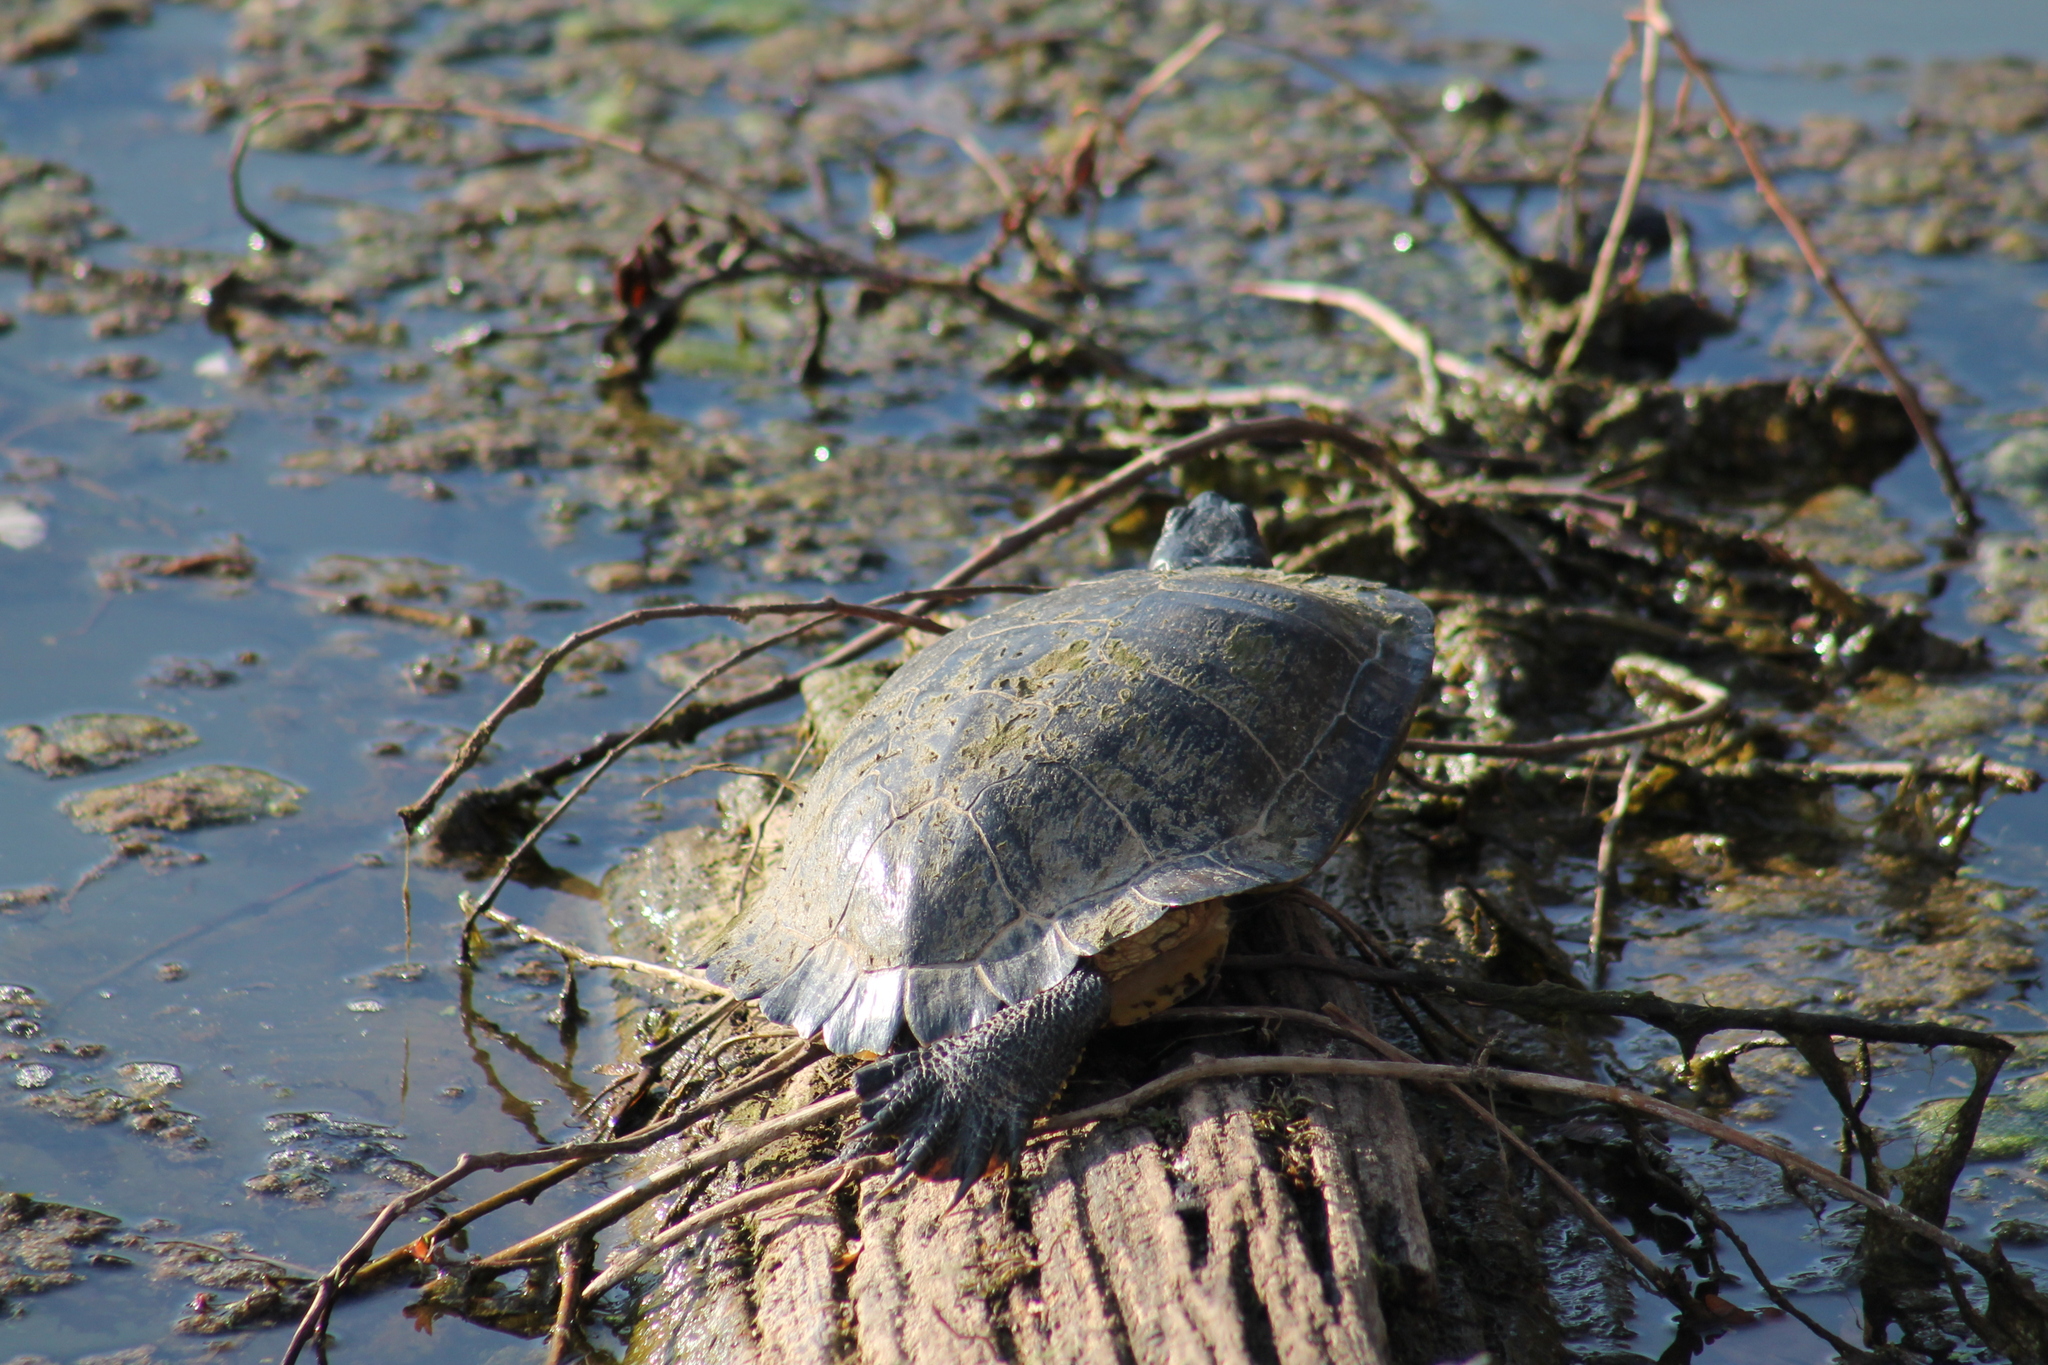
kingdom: Animalia
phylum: Chordata
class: Testudines
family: Emydidae
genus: Trachemys
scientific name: Trachemys scripta
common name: Slider
